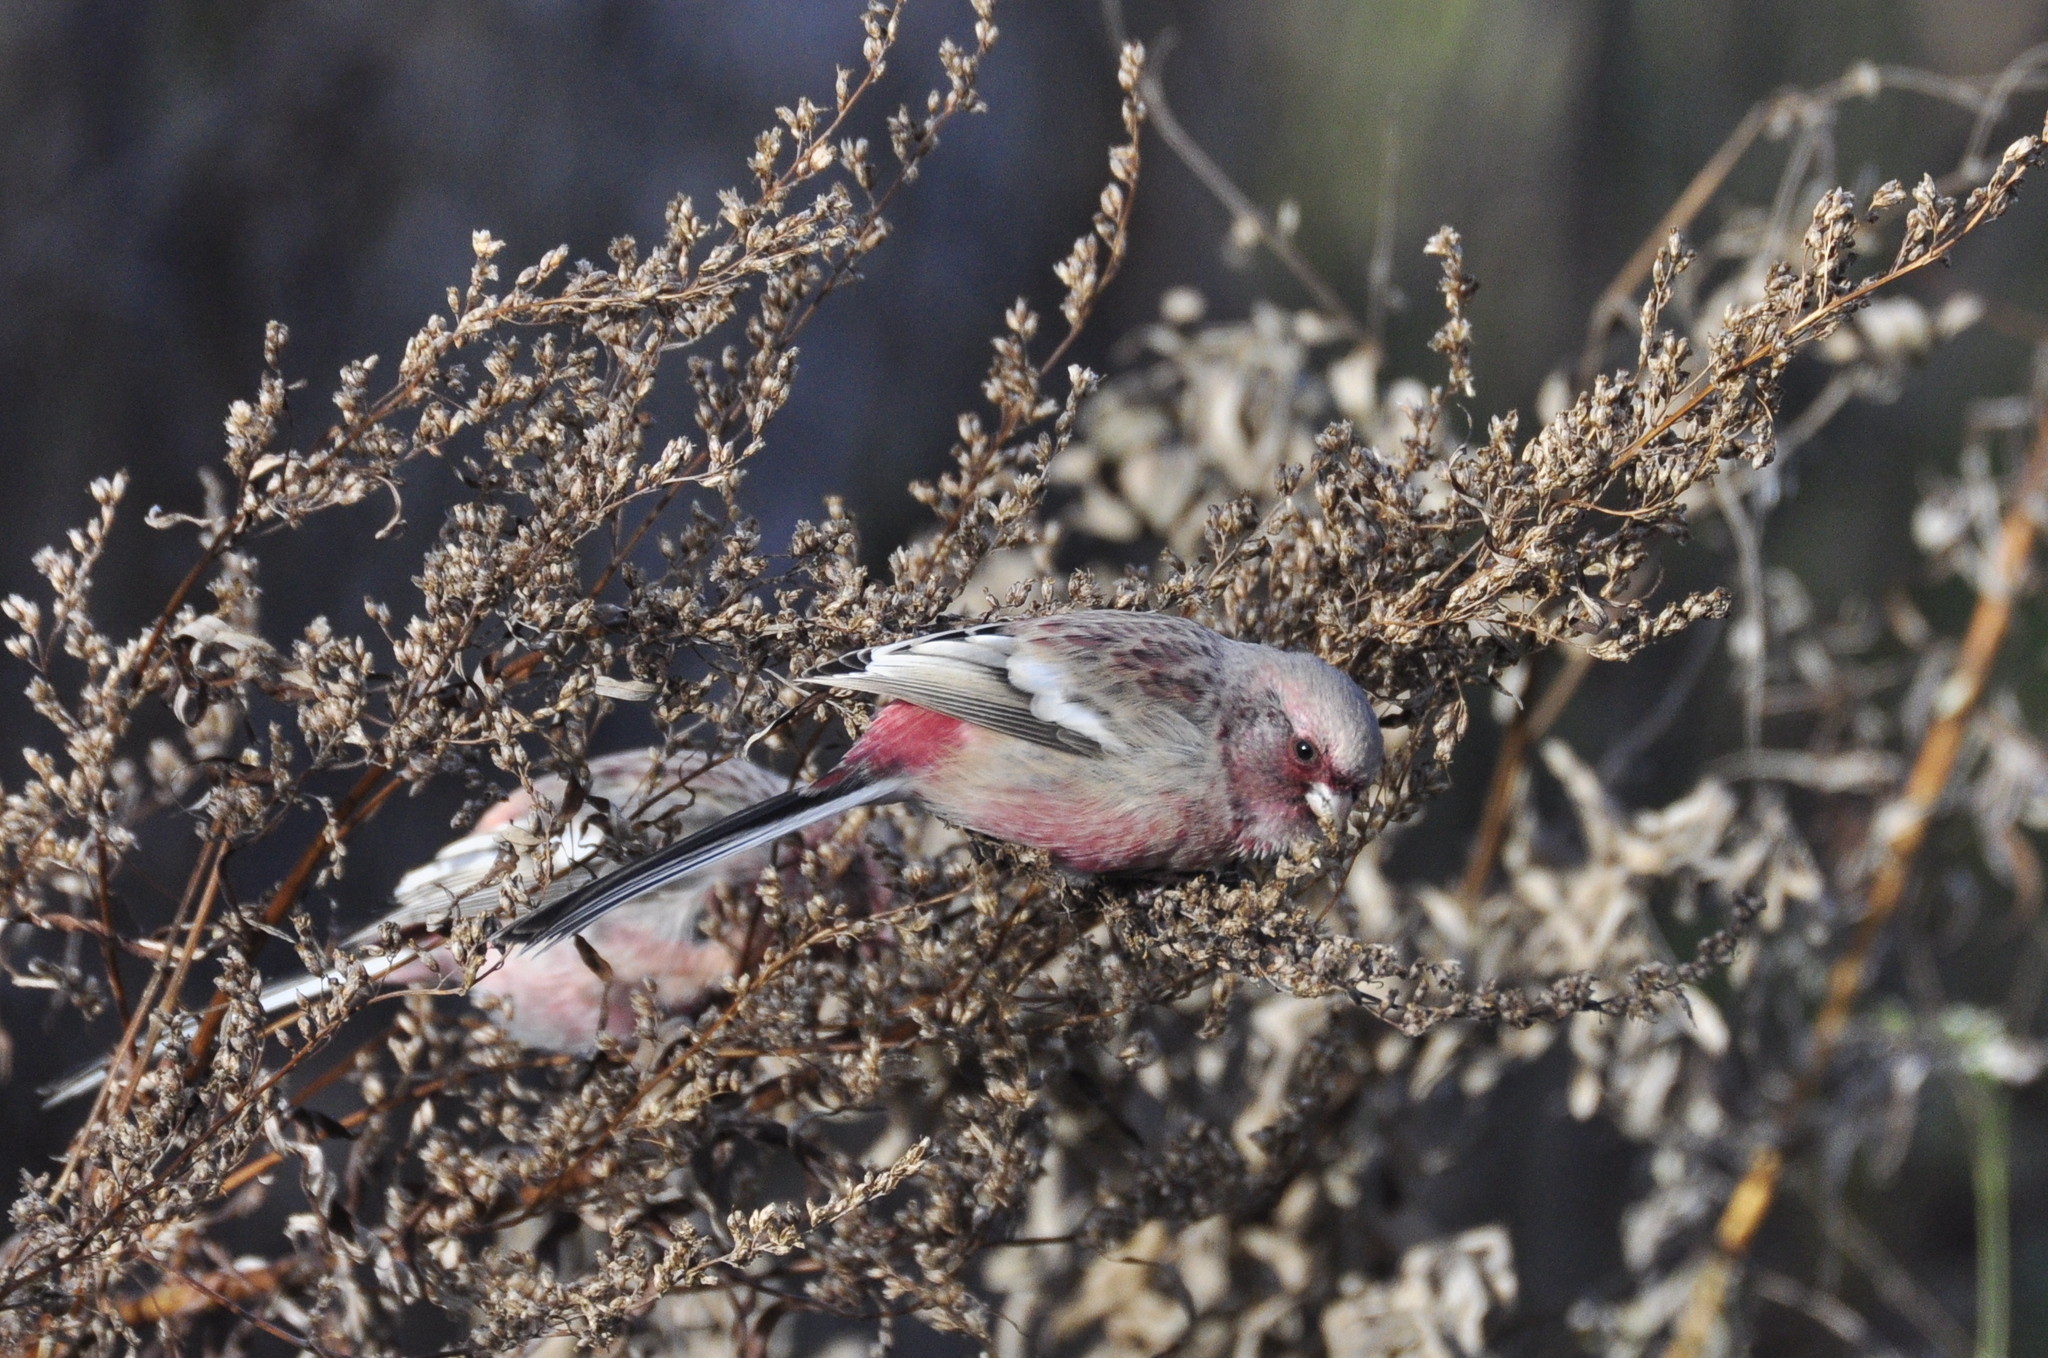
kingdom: Animalia
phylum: Chordata
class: Aves
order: Passeriformes
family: Fringillidae
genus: Carpodacus
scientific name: Carpodacus sibiricus
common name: Long-tailed rosefinch
